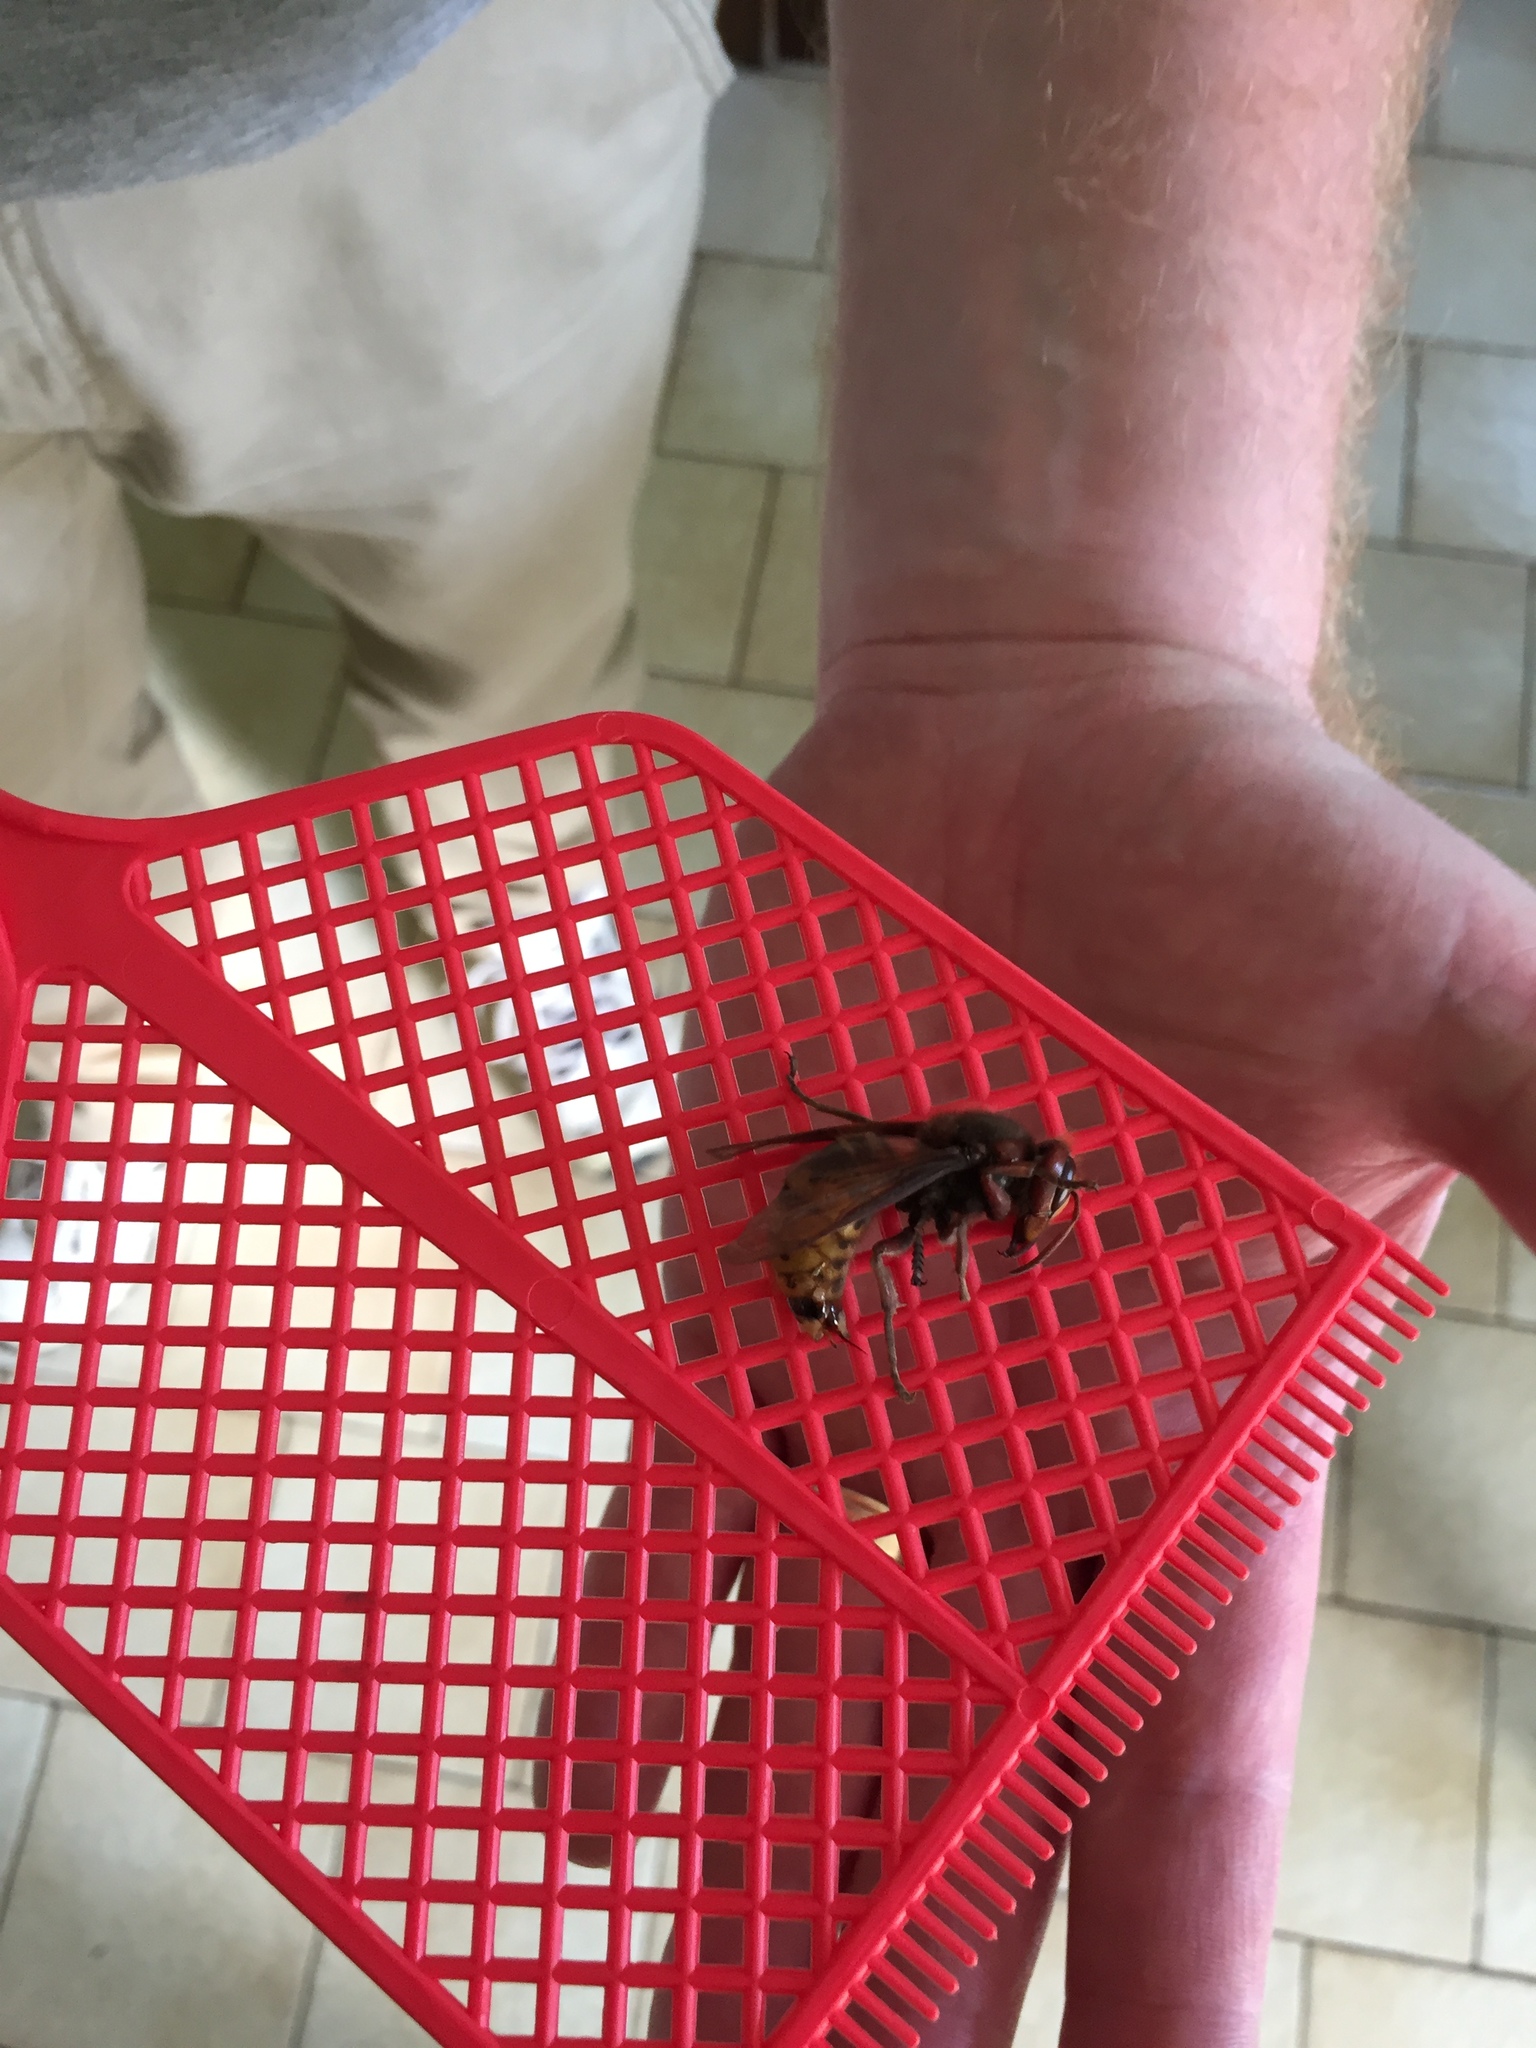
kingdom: Animalia
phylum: Arthropoda
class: Insecta
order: Hymenoptera
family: Vespidae
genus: Vespa
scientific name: Vespa crabro
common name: Hornet
